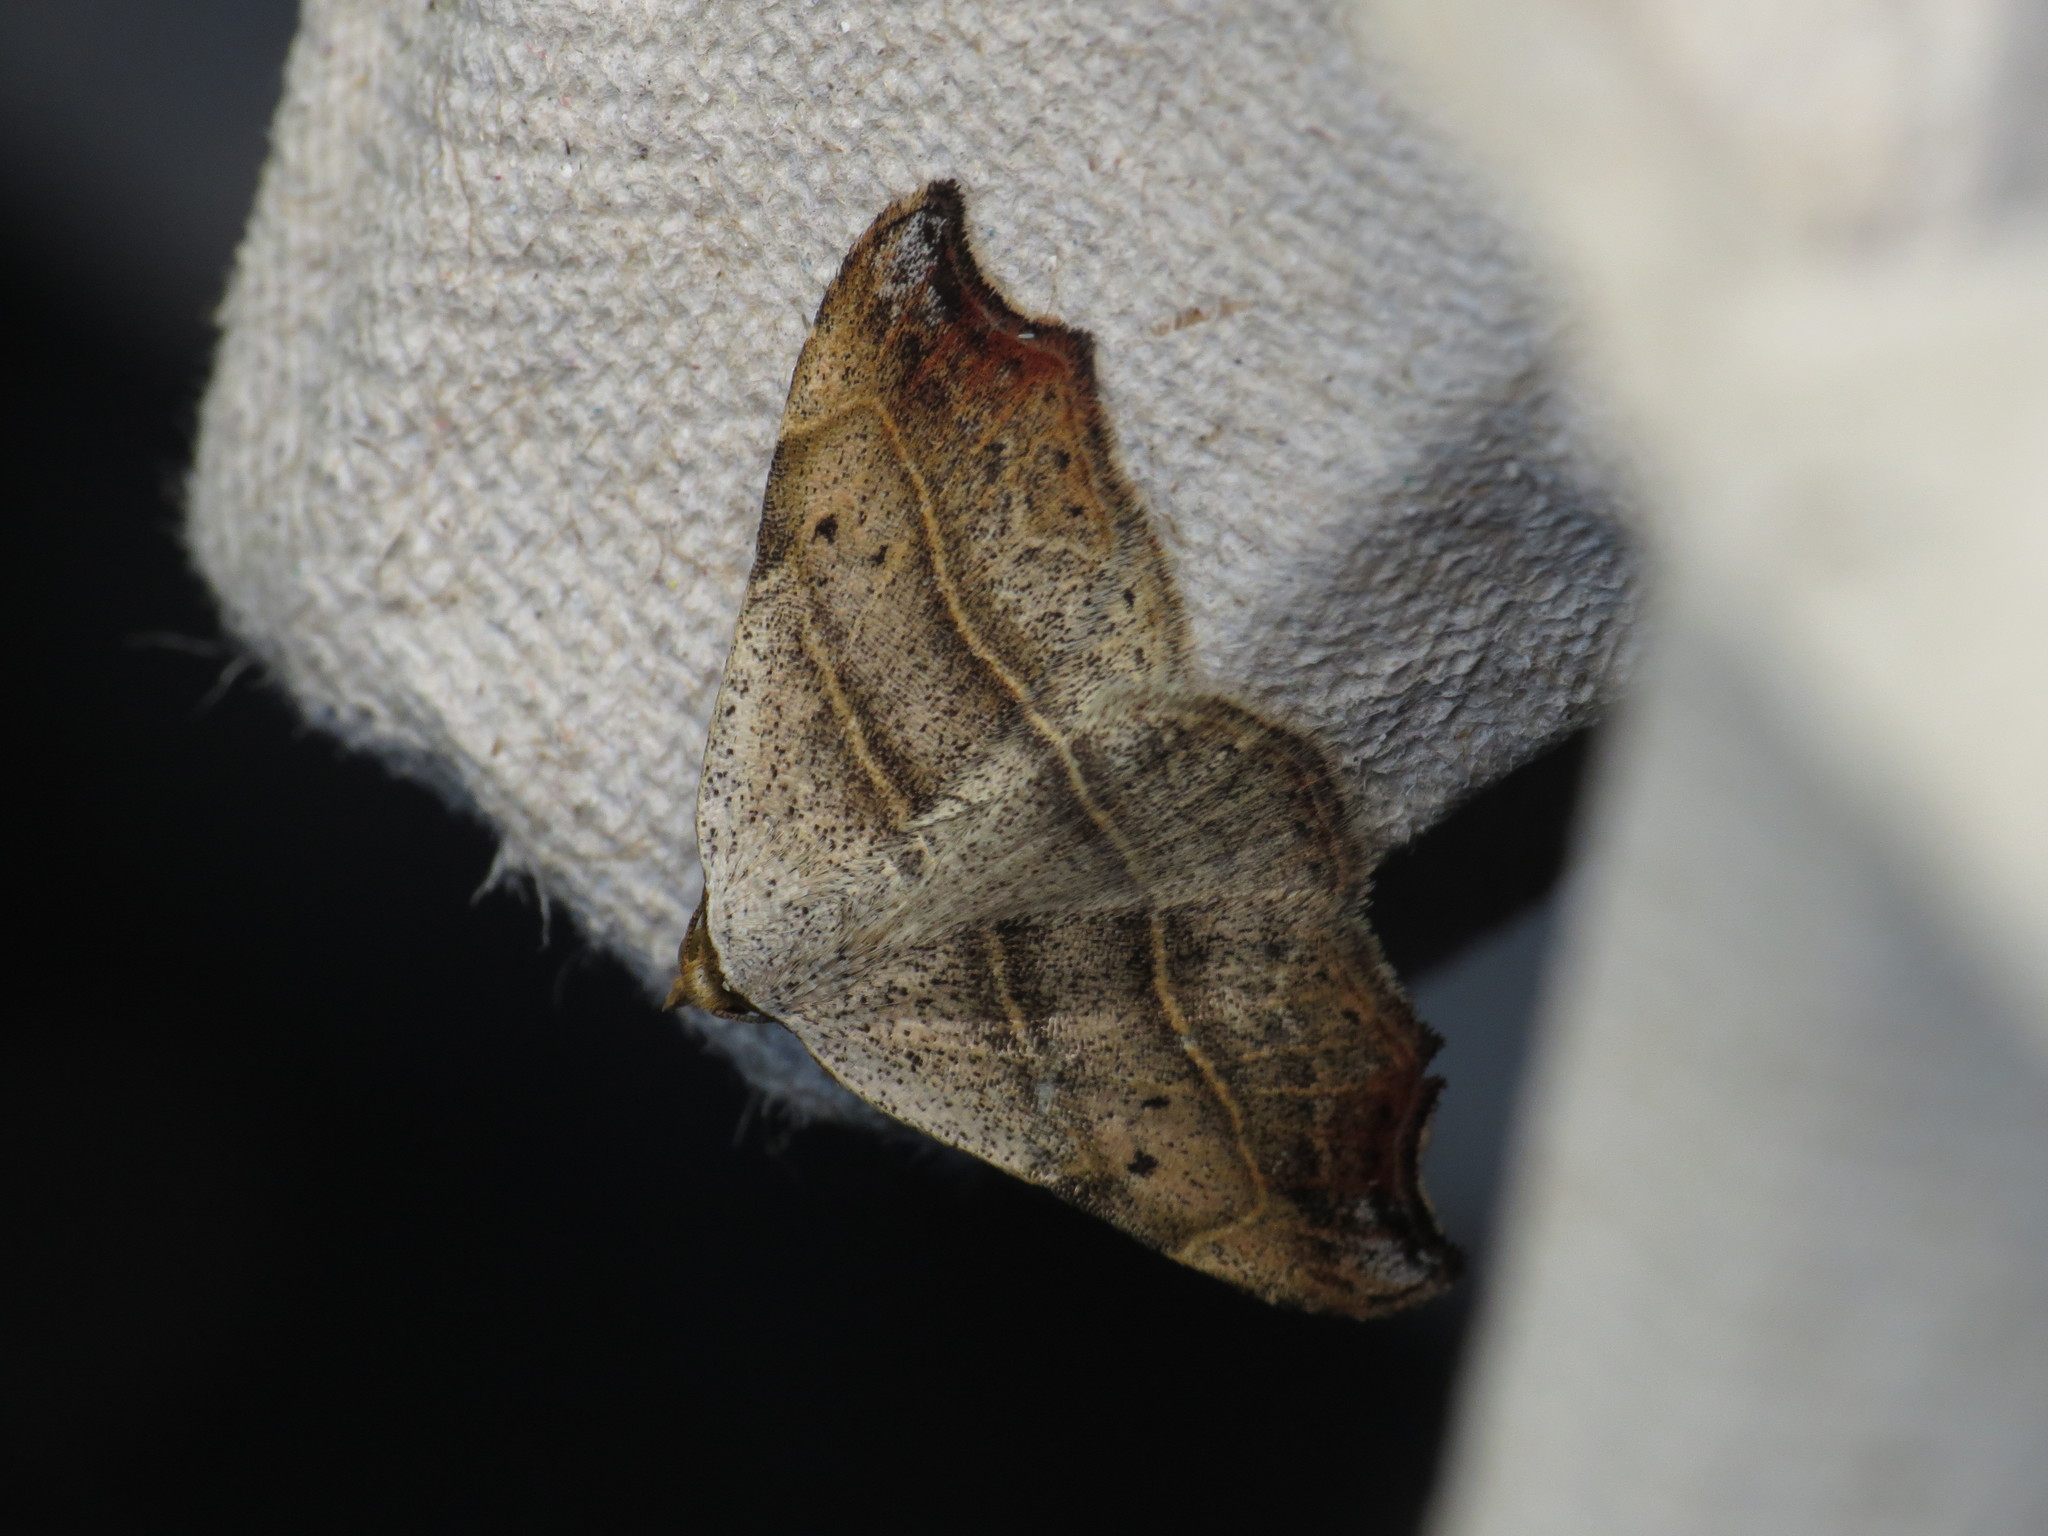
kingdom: Animalia
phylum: Arthropoda
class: Insecta
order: Lepidoptera
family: Erebidae
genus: Laspeyria
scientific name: Laspeyria flexula
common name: Beautiful hook-tip
